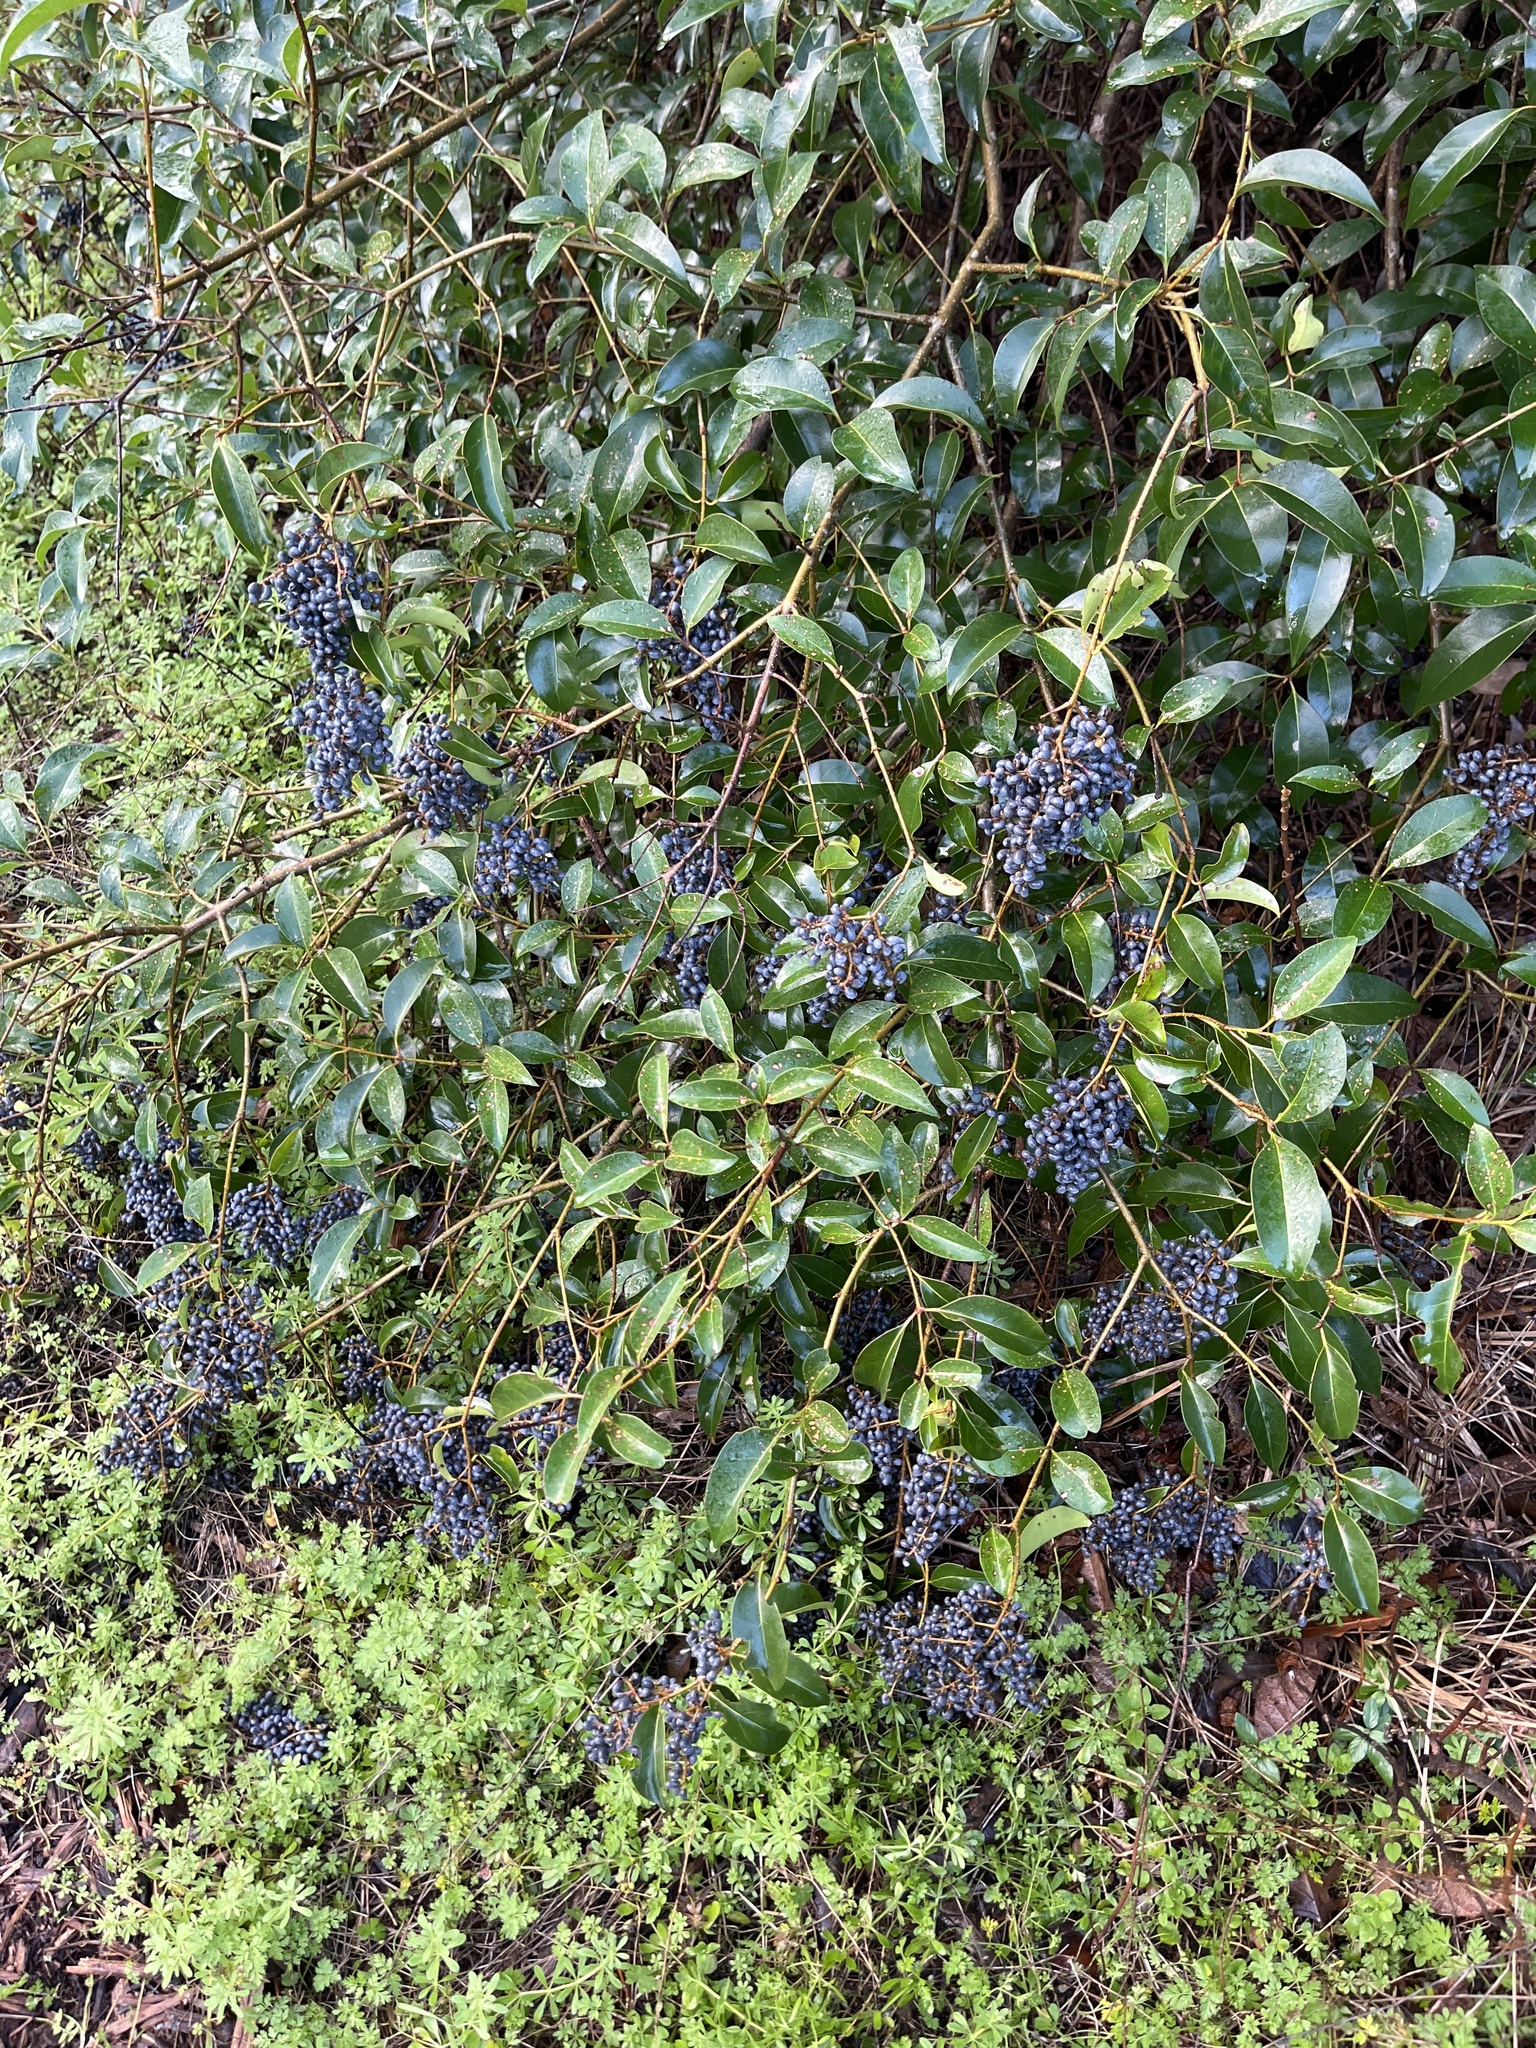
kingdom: Plantae
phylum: Tracheophyta
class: Magnoliopsida
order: Lamiales
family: Oleaceae
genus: Ligustrum
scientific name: Ligustrum lucidum
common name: Glossy privet
